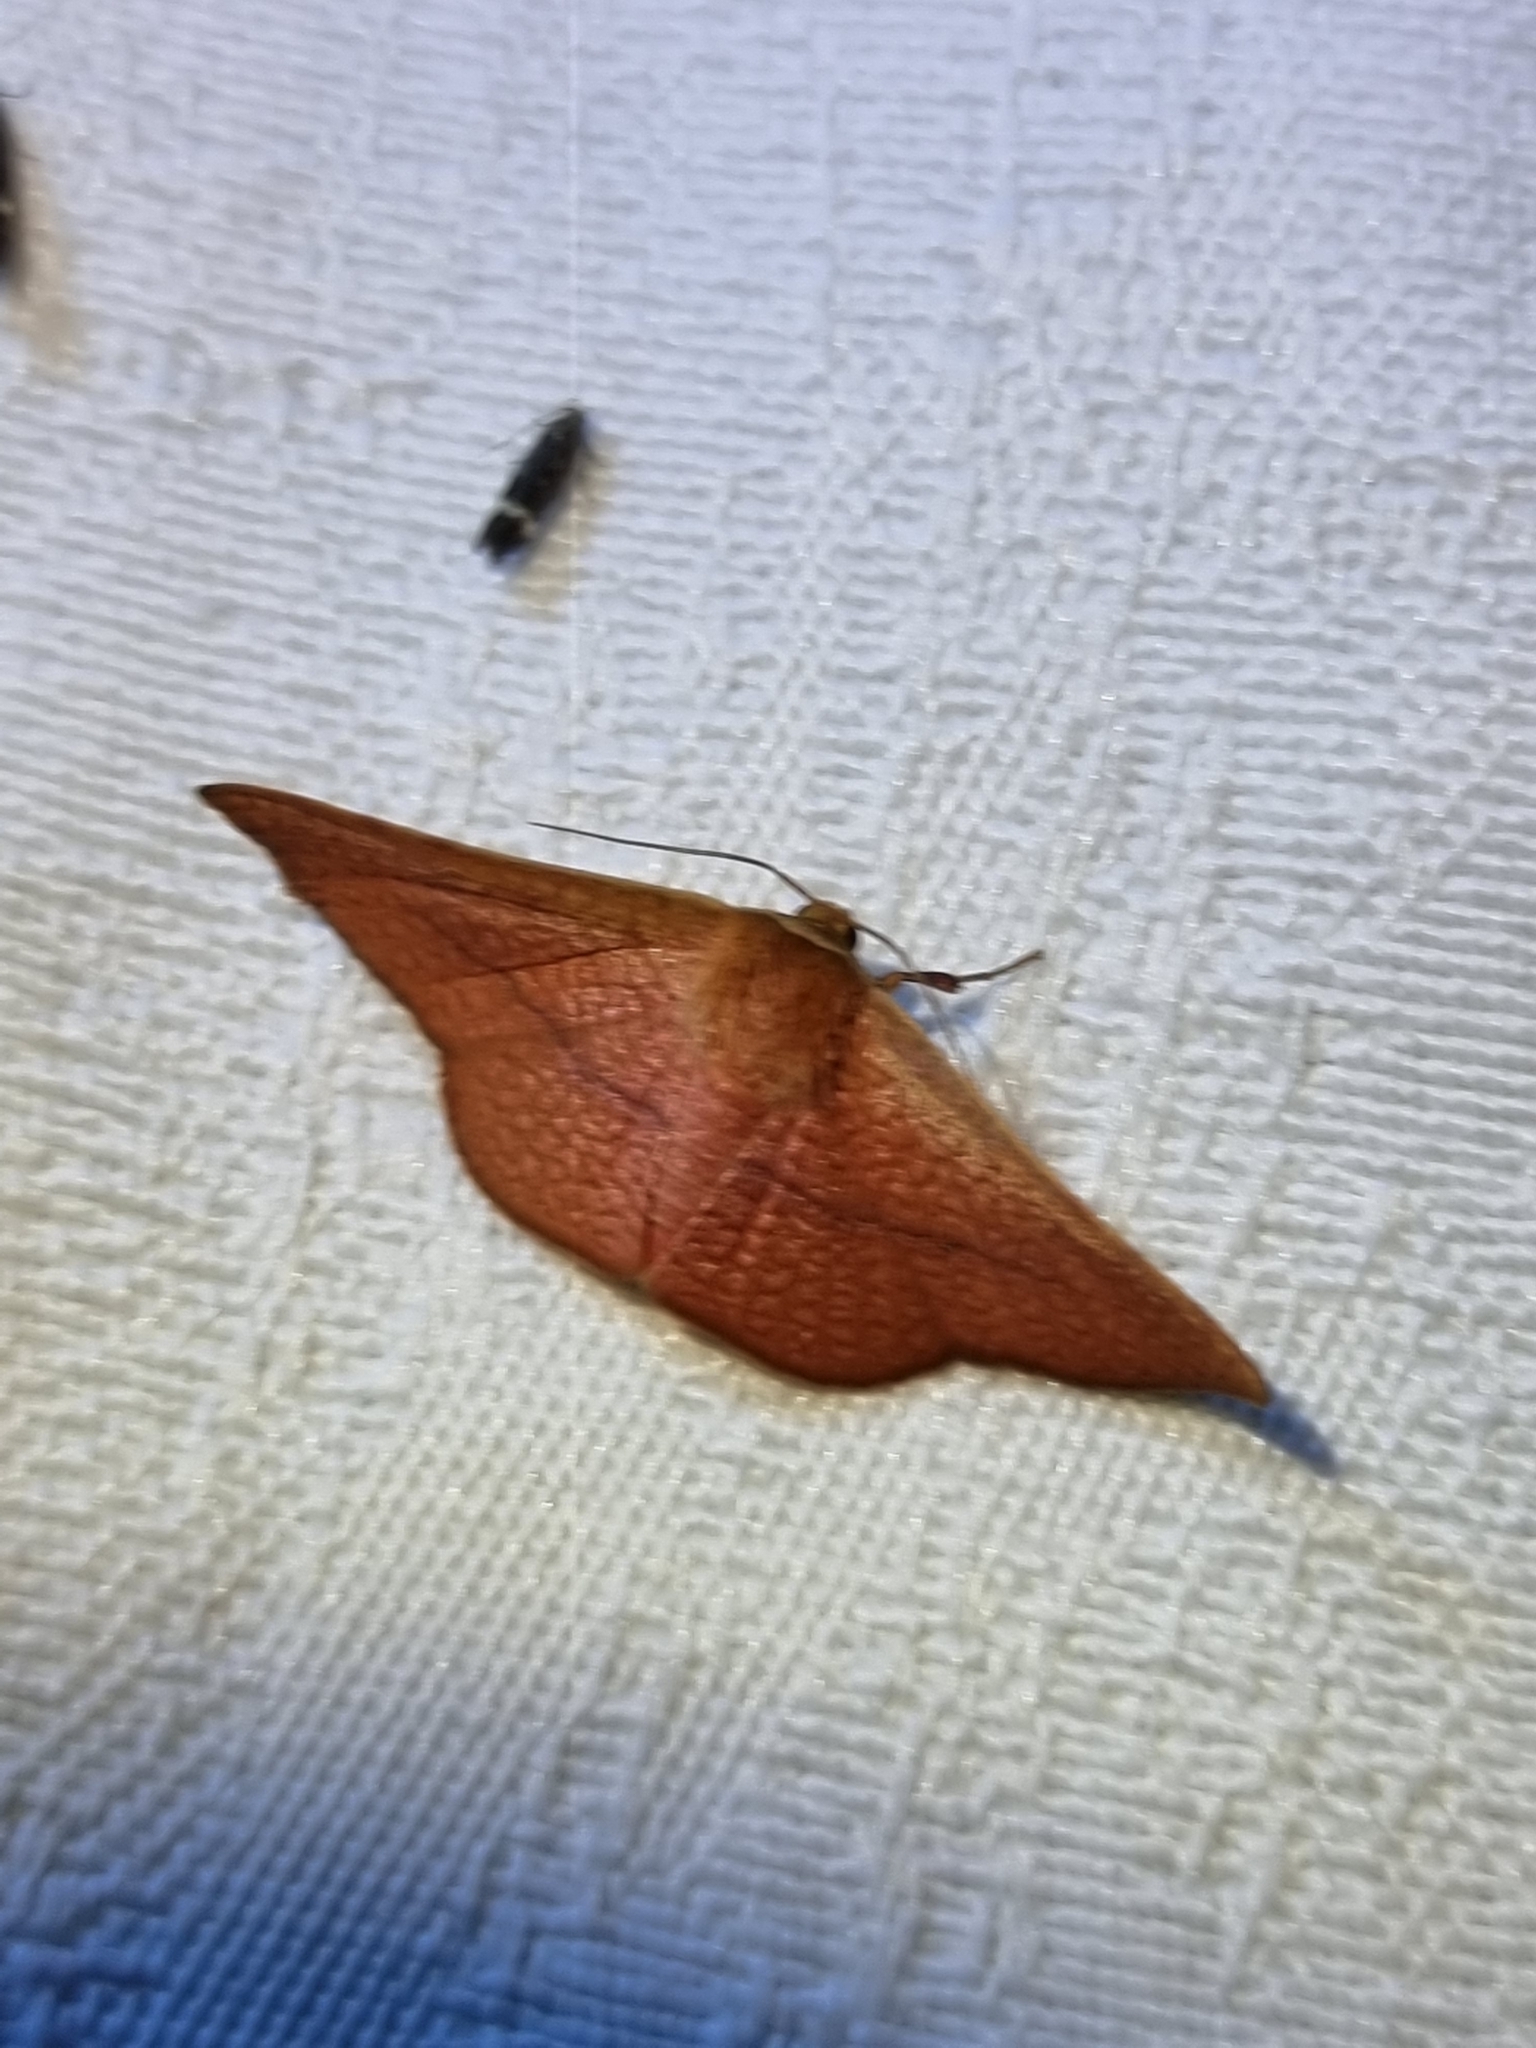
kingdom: Animalia
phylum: Arthropoda
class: Insecta
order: Lepidoptera
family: Thyrididae
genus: Aglaopus
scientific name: Aglaopus pyrrhata
